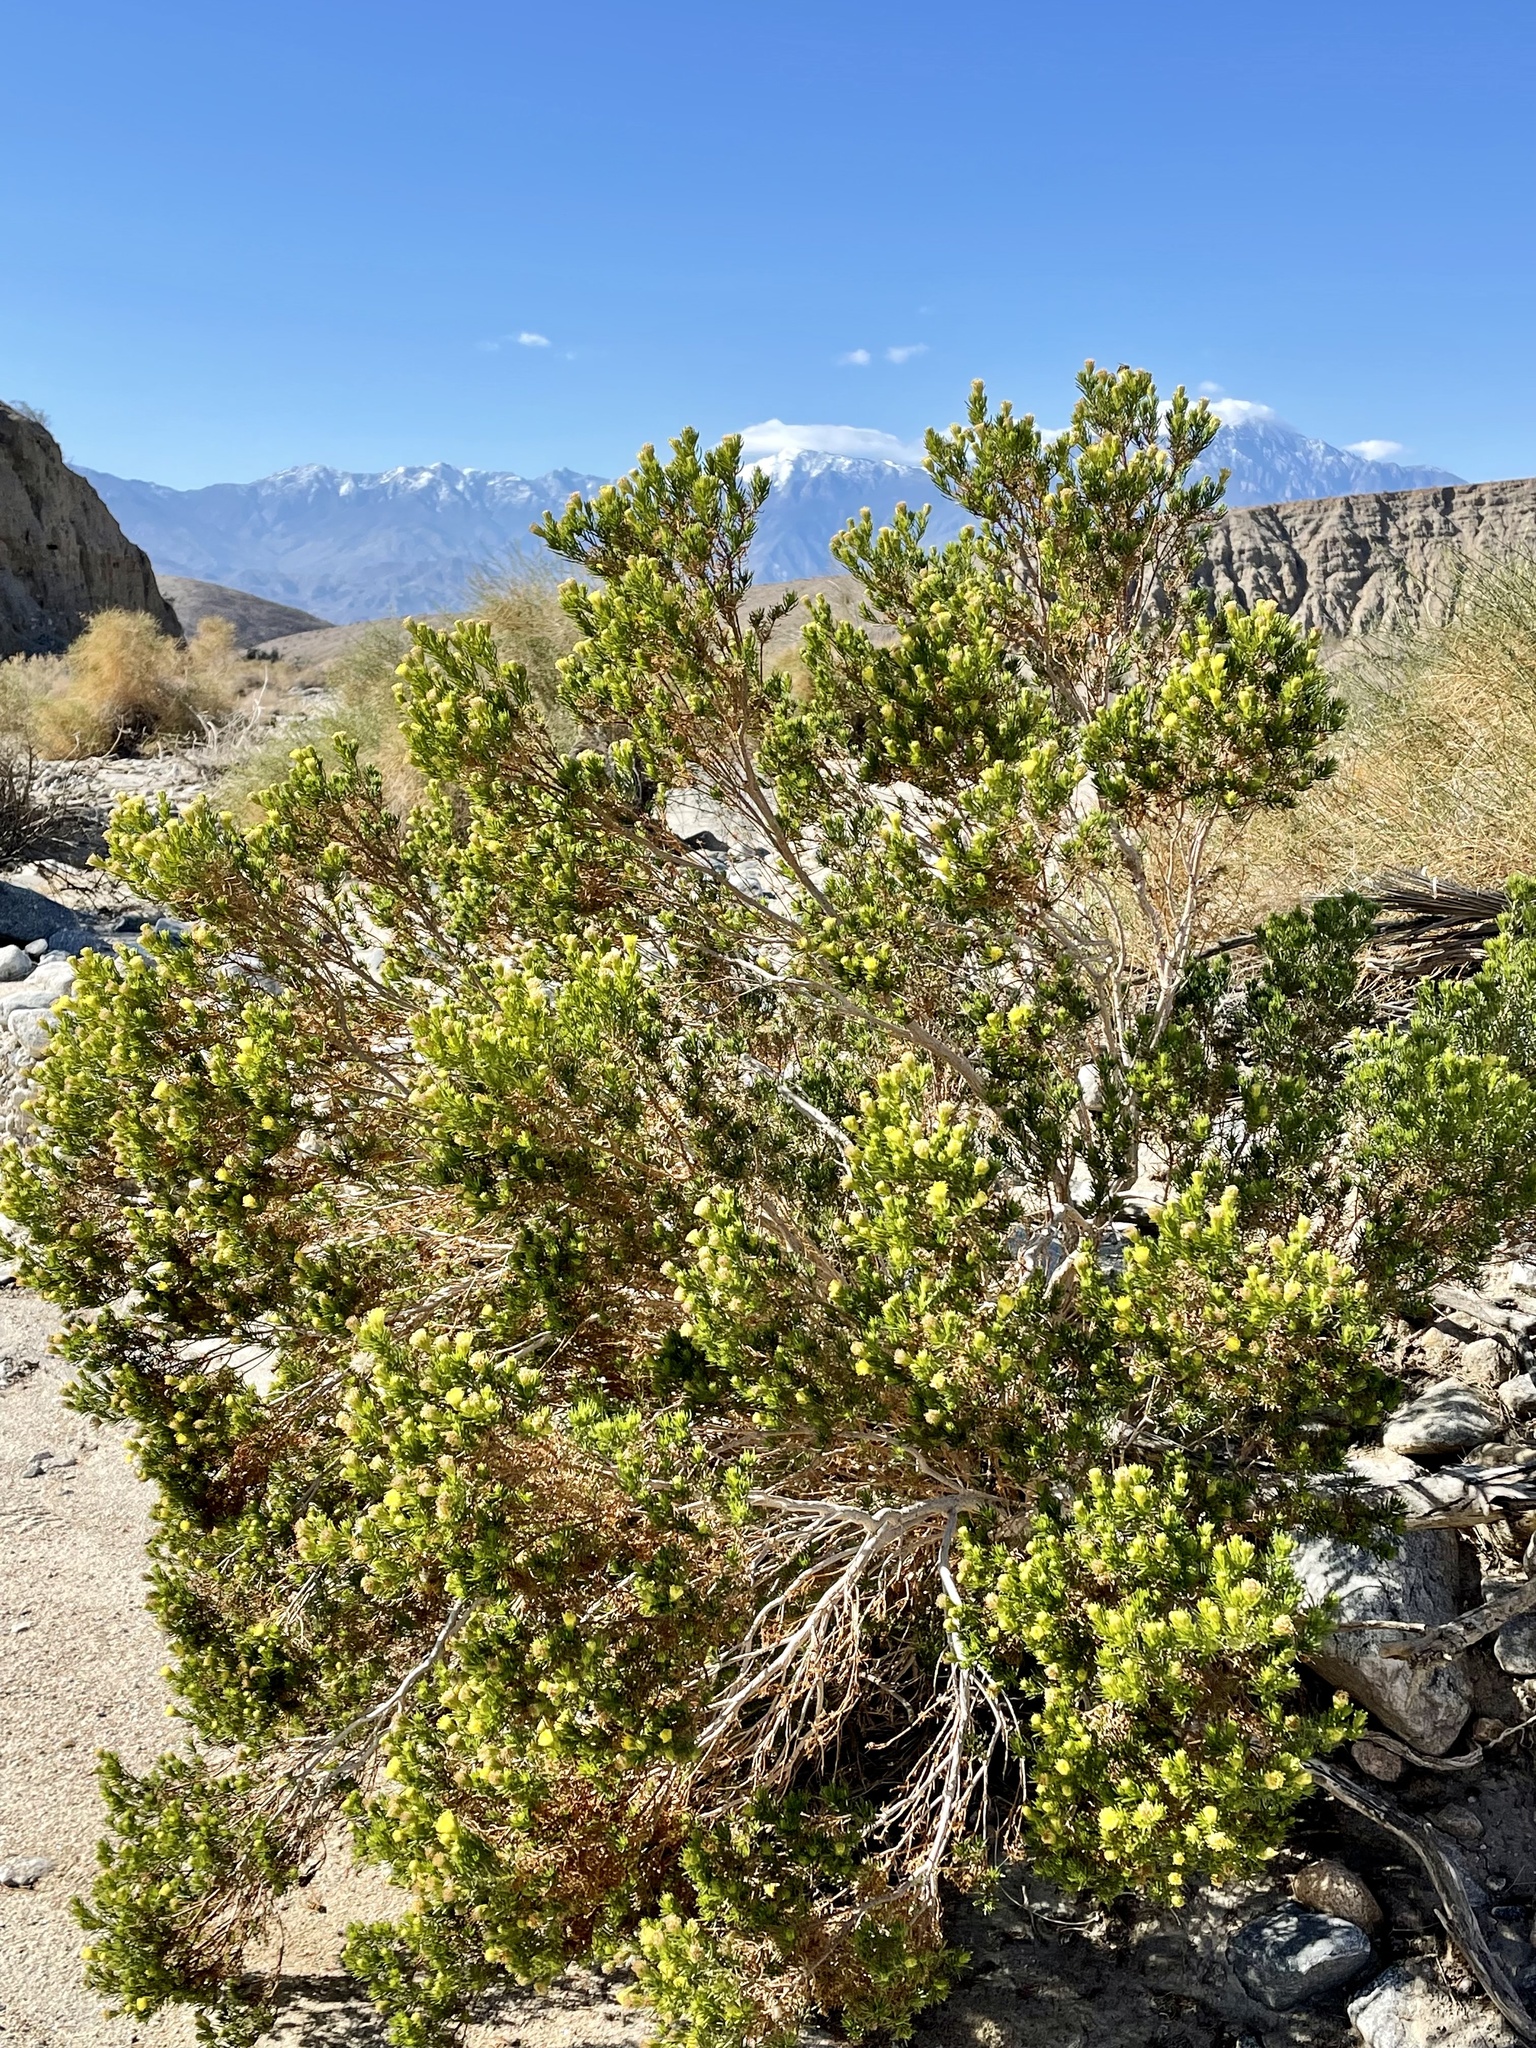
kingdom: Plantae
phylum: Tracheophyta
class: Magnoliopsida
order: Asterales
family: Asteraceae
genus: Peucephyllum
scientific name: Peucephyllum schottii
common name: Pygmy-cedar
